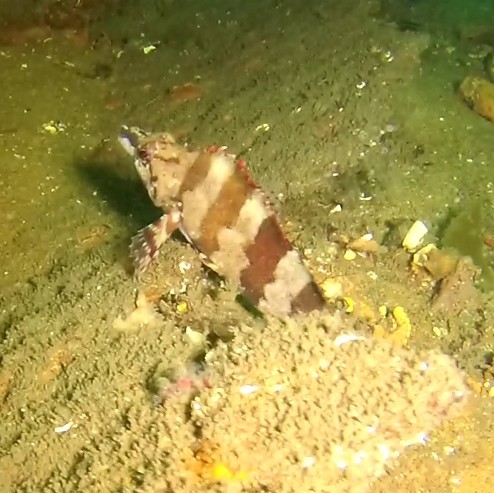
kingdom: Animalia
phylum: Chordata
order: Scorpaeniformes
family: Hexagrammidae
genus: Oxylebius
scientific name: Oxylebius pictus
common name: Painted greenling
